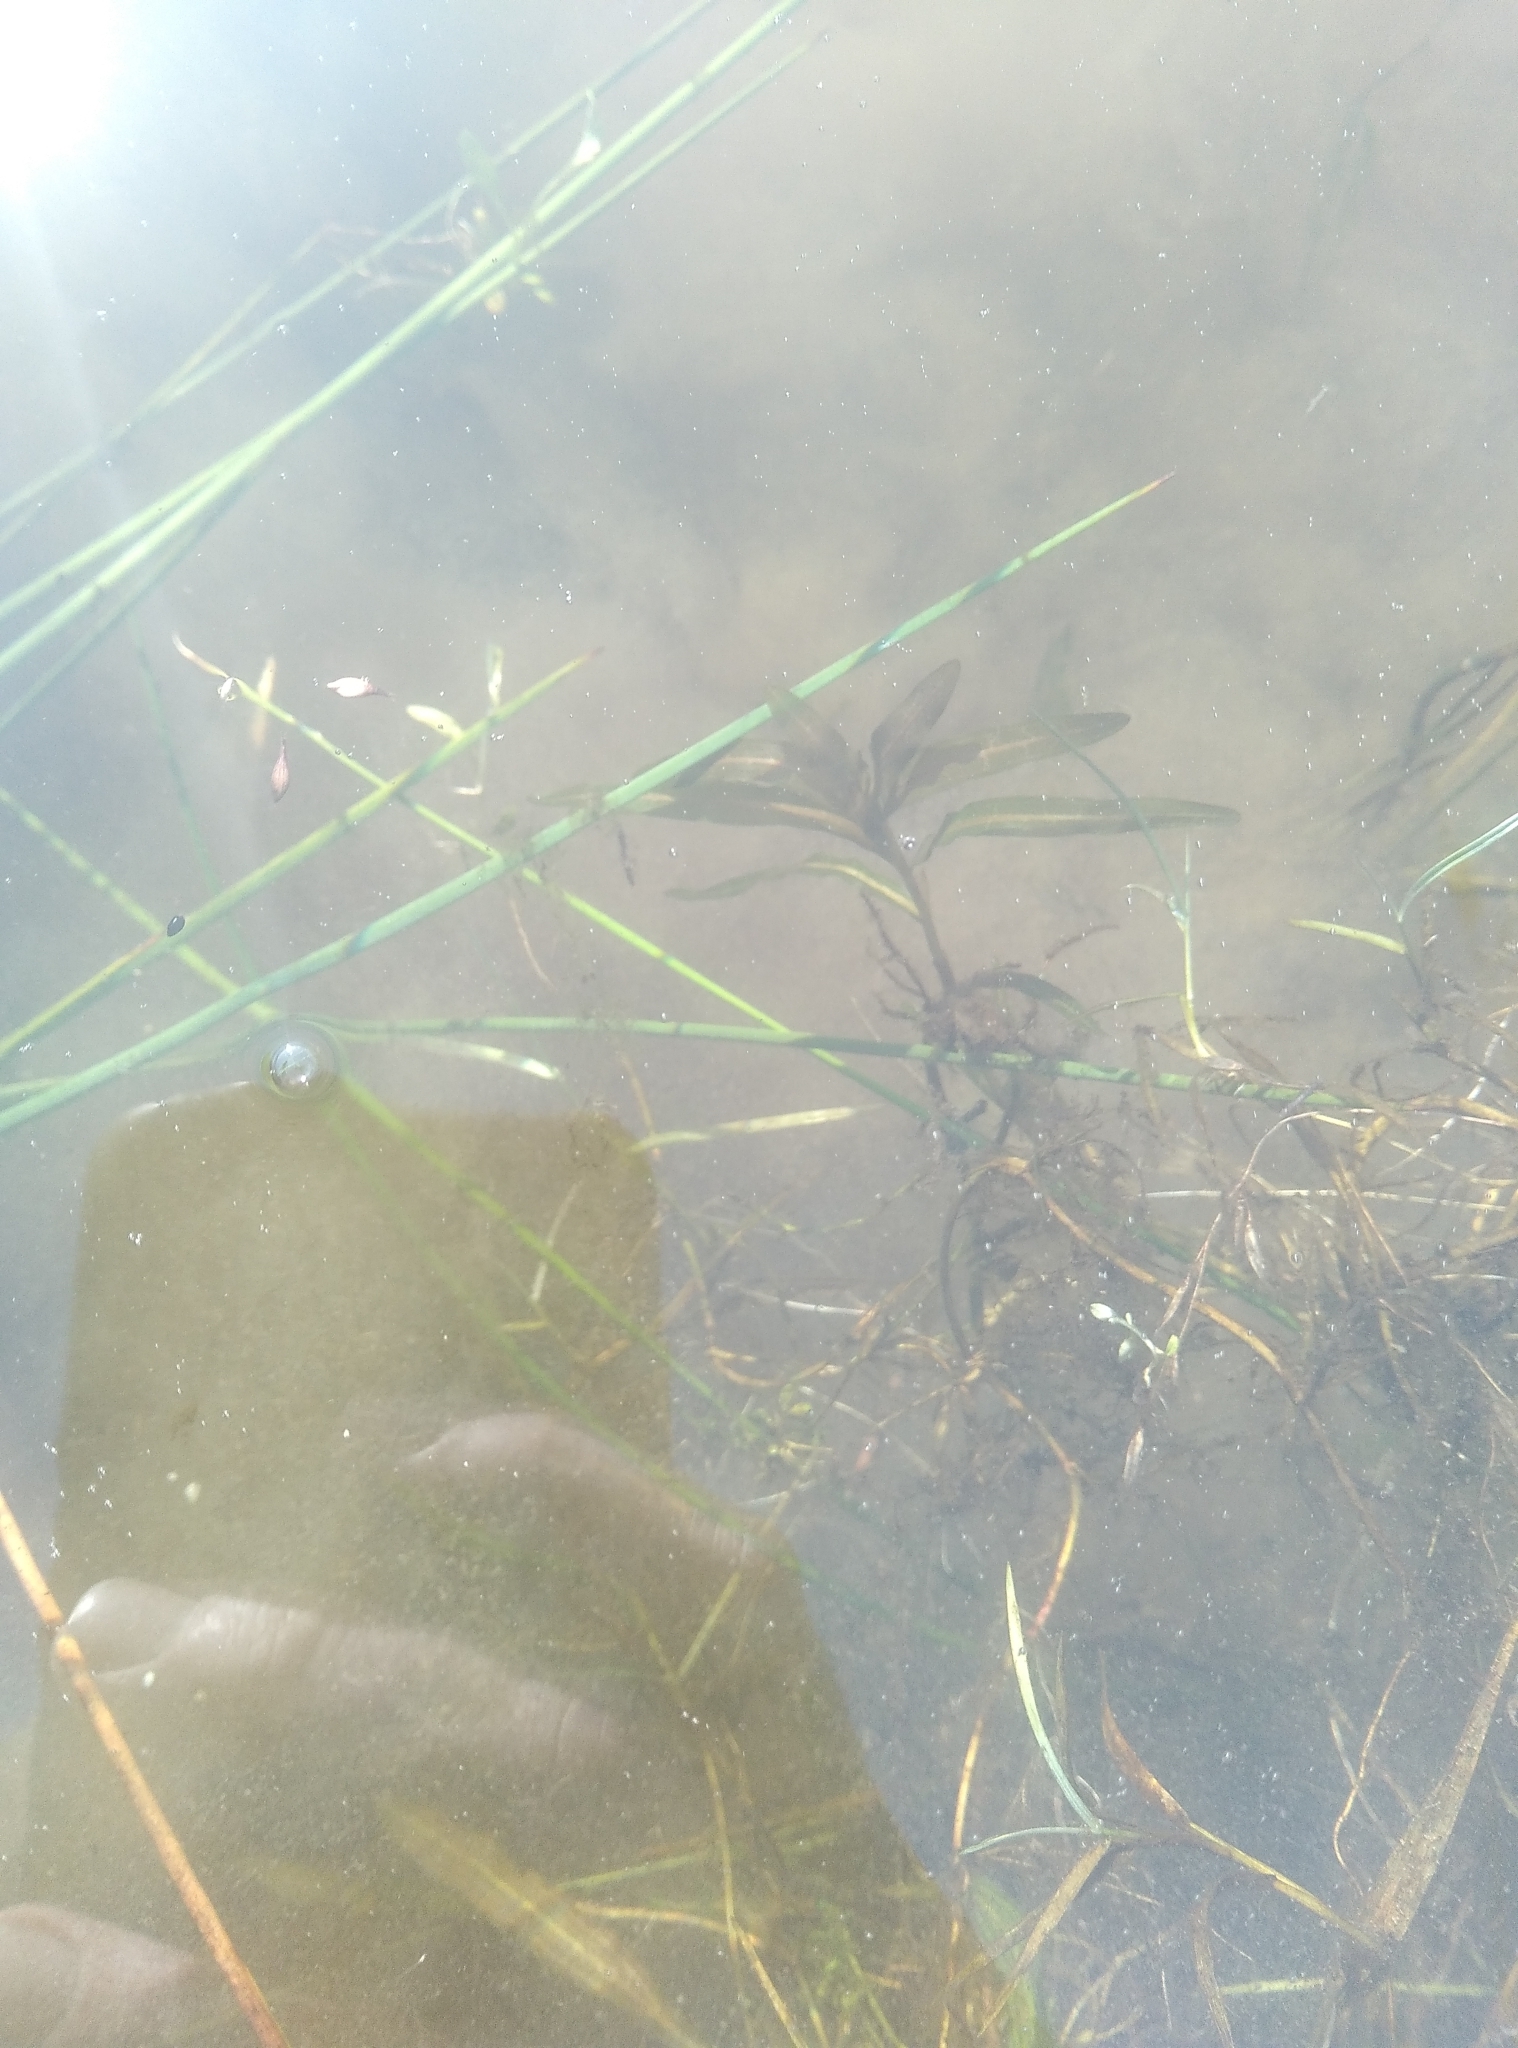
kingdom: Plantae
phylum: Tracheophyta
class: Liliopsida
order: Alismatales
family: Potamogetonaceae
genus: Potamogeton
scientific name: Potamogeton crispus
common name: Curled pondweed
